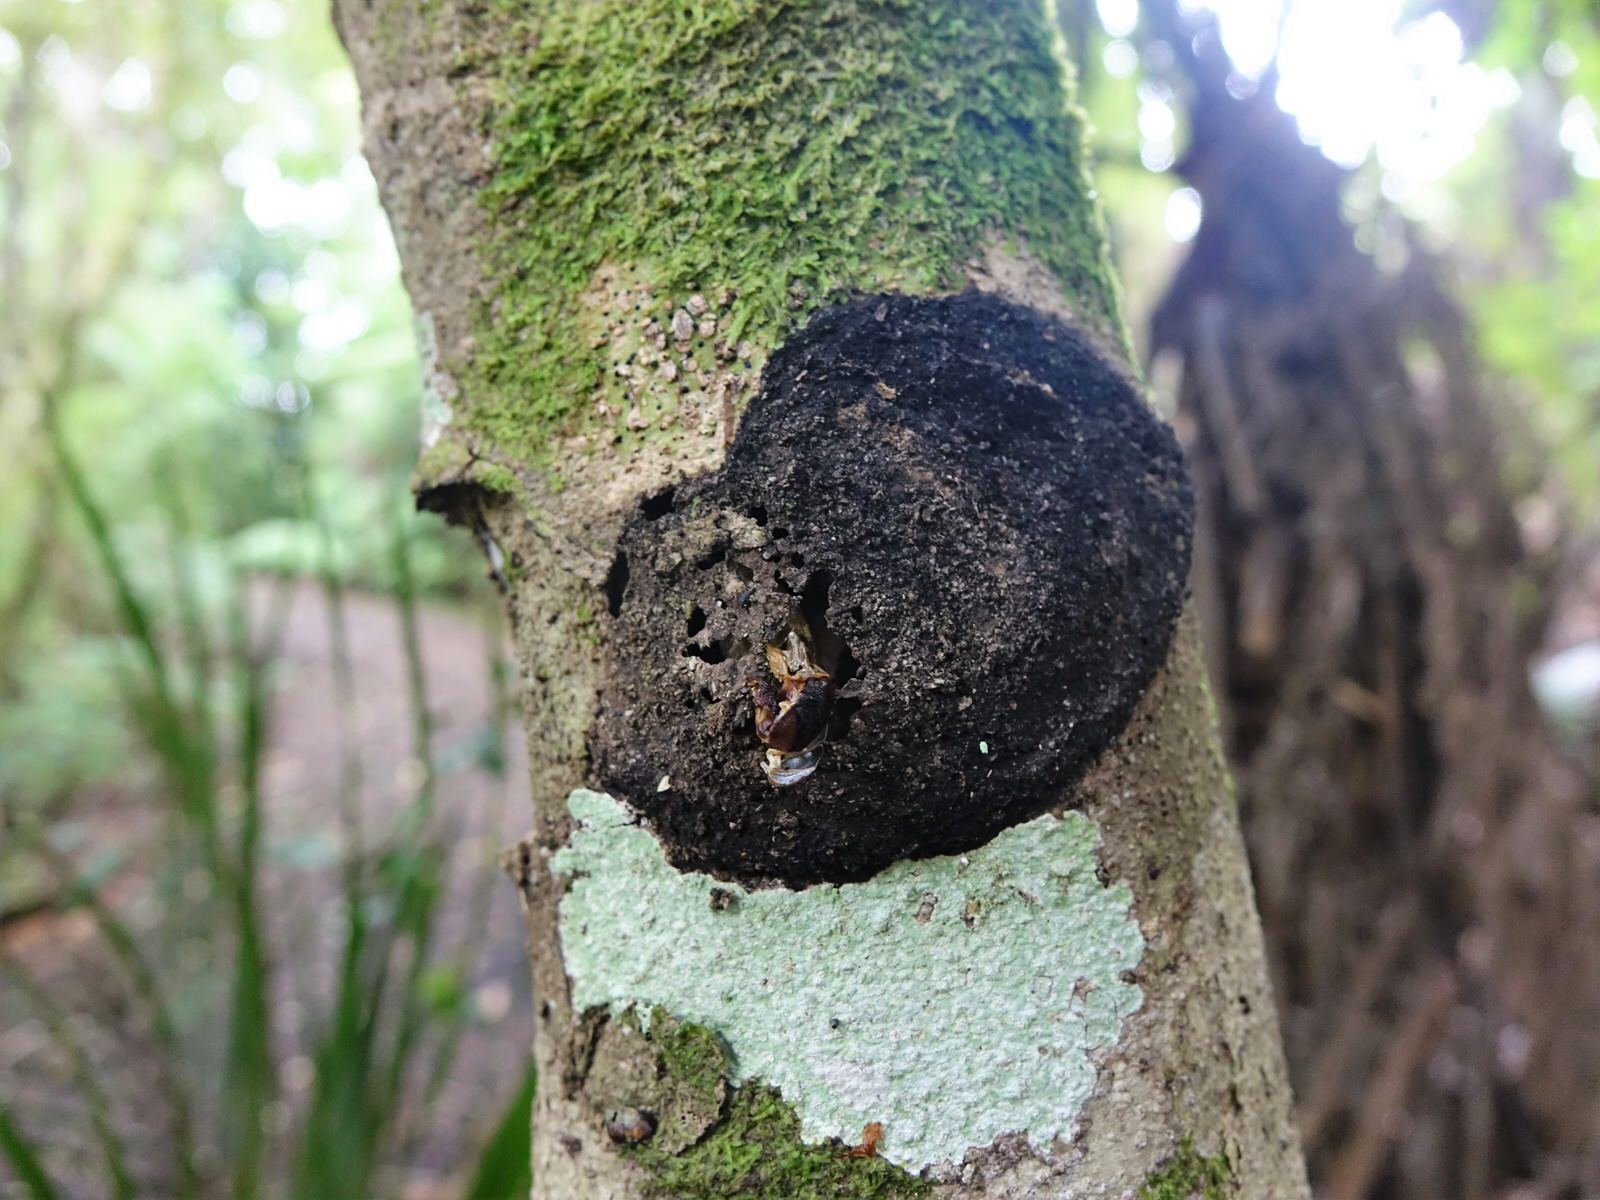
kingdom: Animalia
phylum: Arthropoda
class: Insecta
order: Lepidoptera
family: Hepialidae
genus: Aenetus
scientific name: Aenetus virescens
